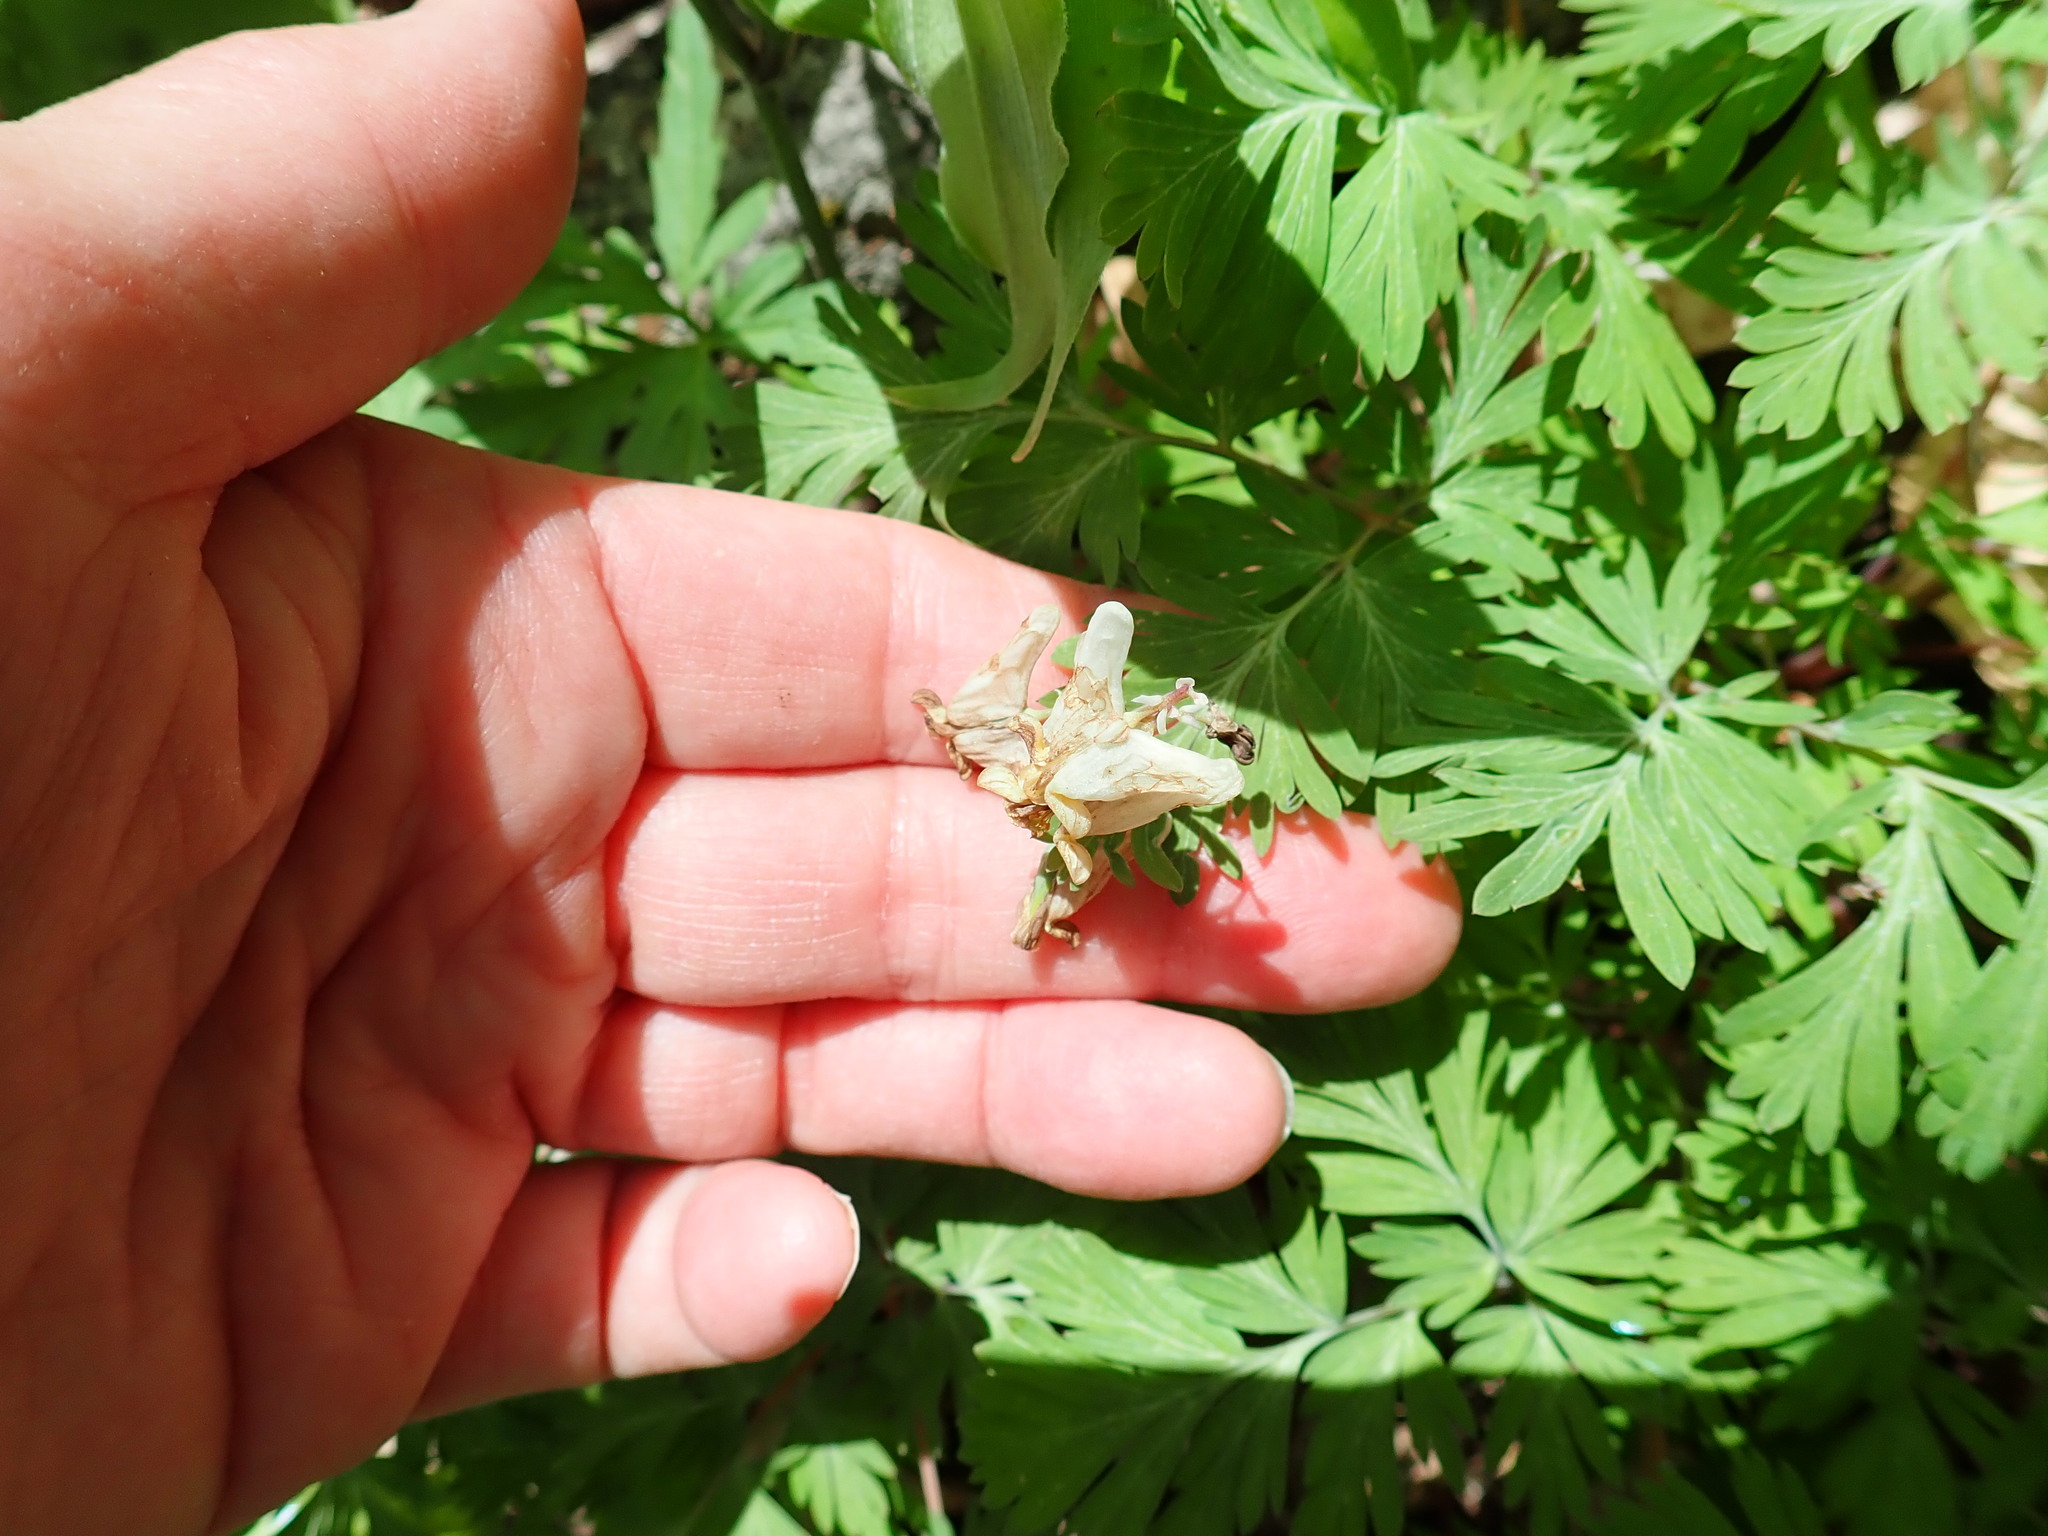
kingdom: Plantae
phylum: Tracheophyta
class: Magnoliopsida
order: Ranunculales
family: Papaveraceae
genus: Dicentra
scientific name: Dicentra cucullaria
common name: Dutchman's breeches
